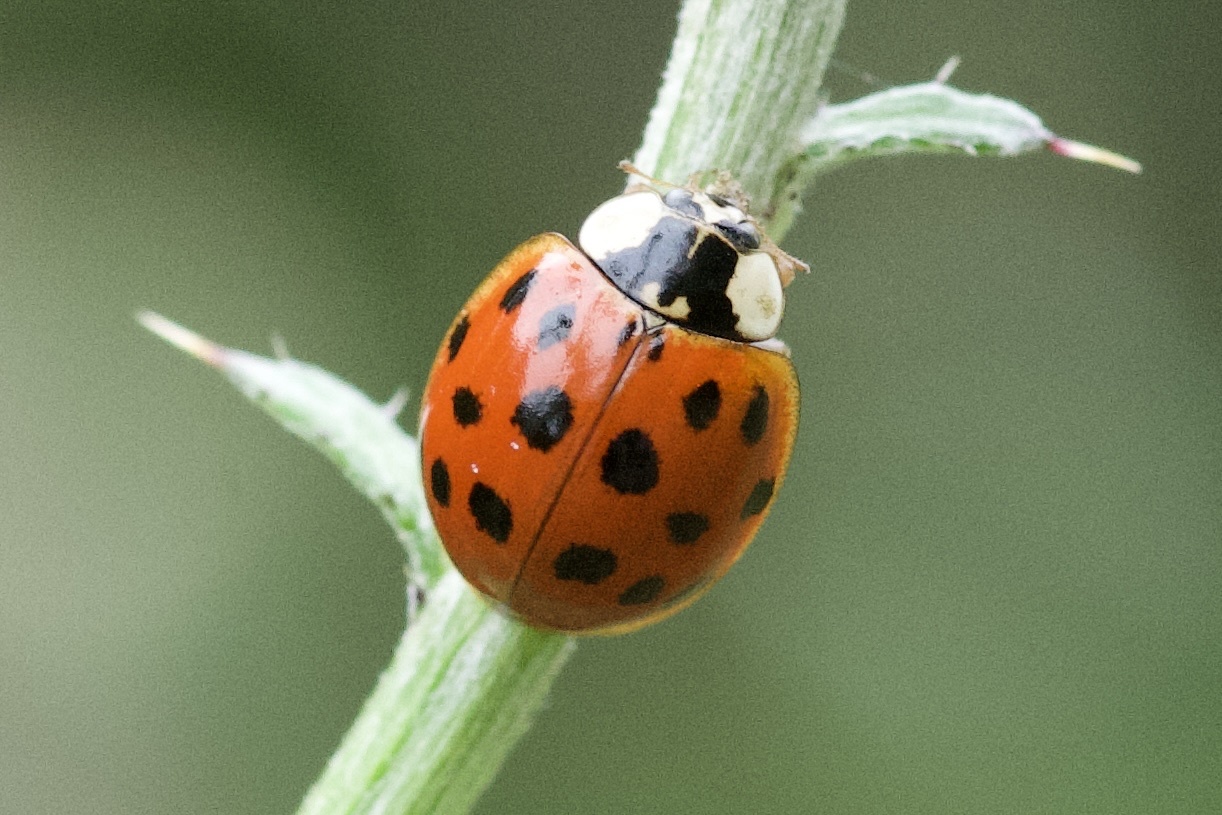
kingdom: Animalia
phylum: Arthropoda
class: Insecta
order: Coleoptera
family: Coccinellidae
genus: Harmonia
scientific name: Harmonia axyridis
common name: Harlequin ladybird
